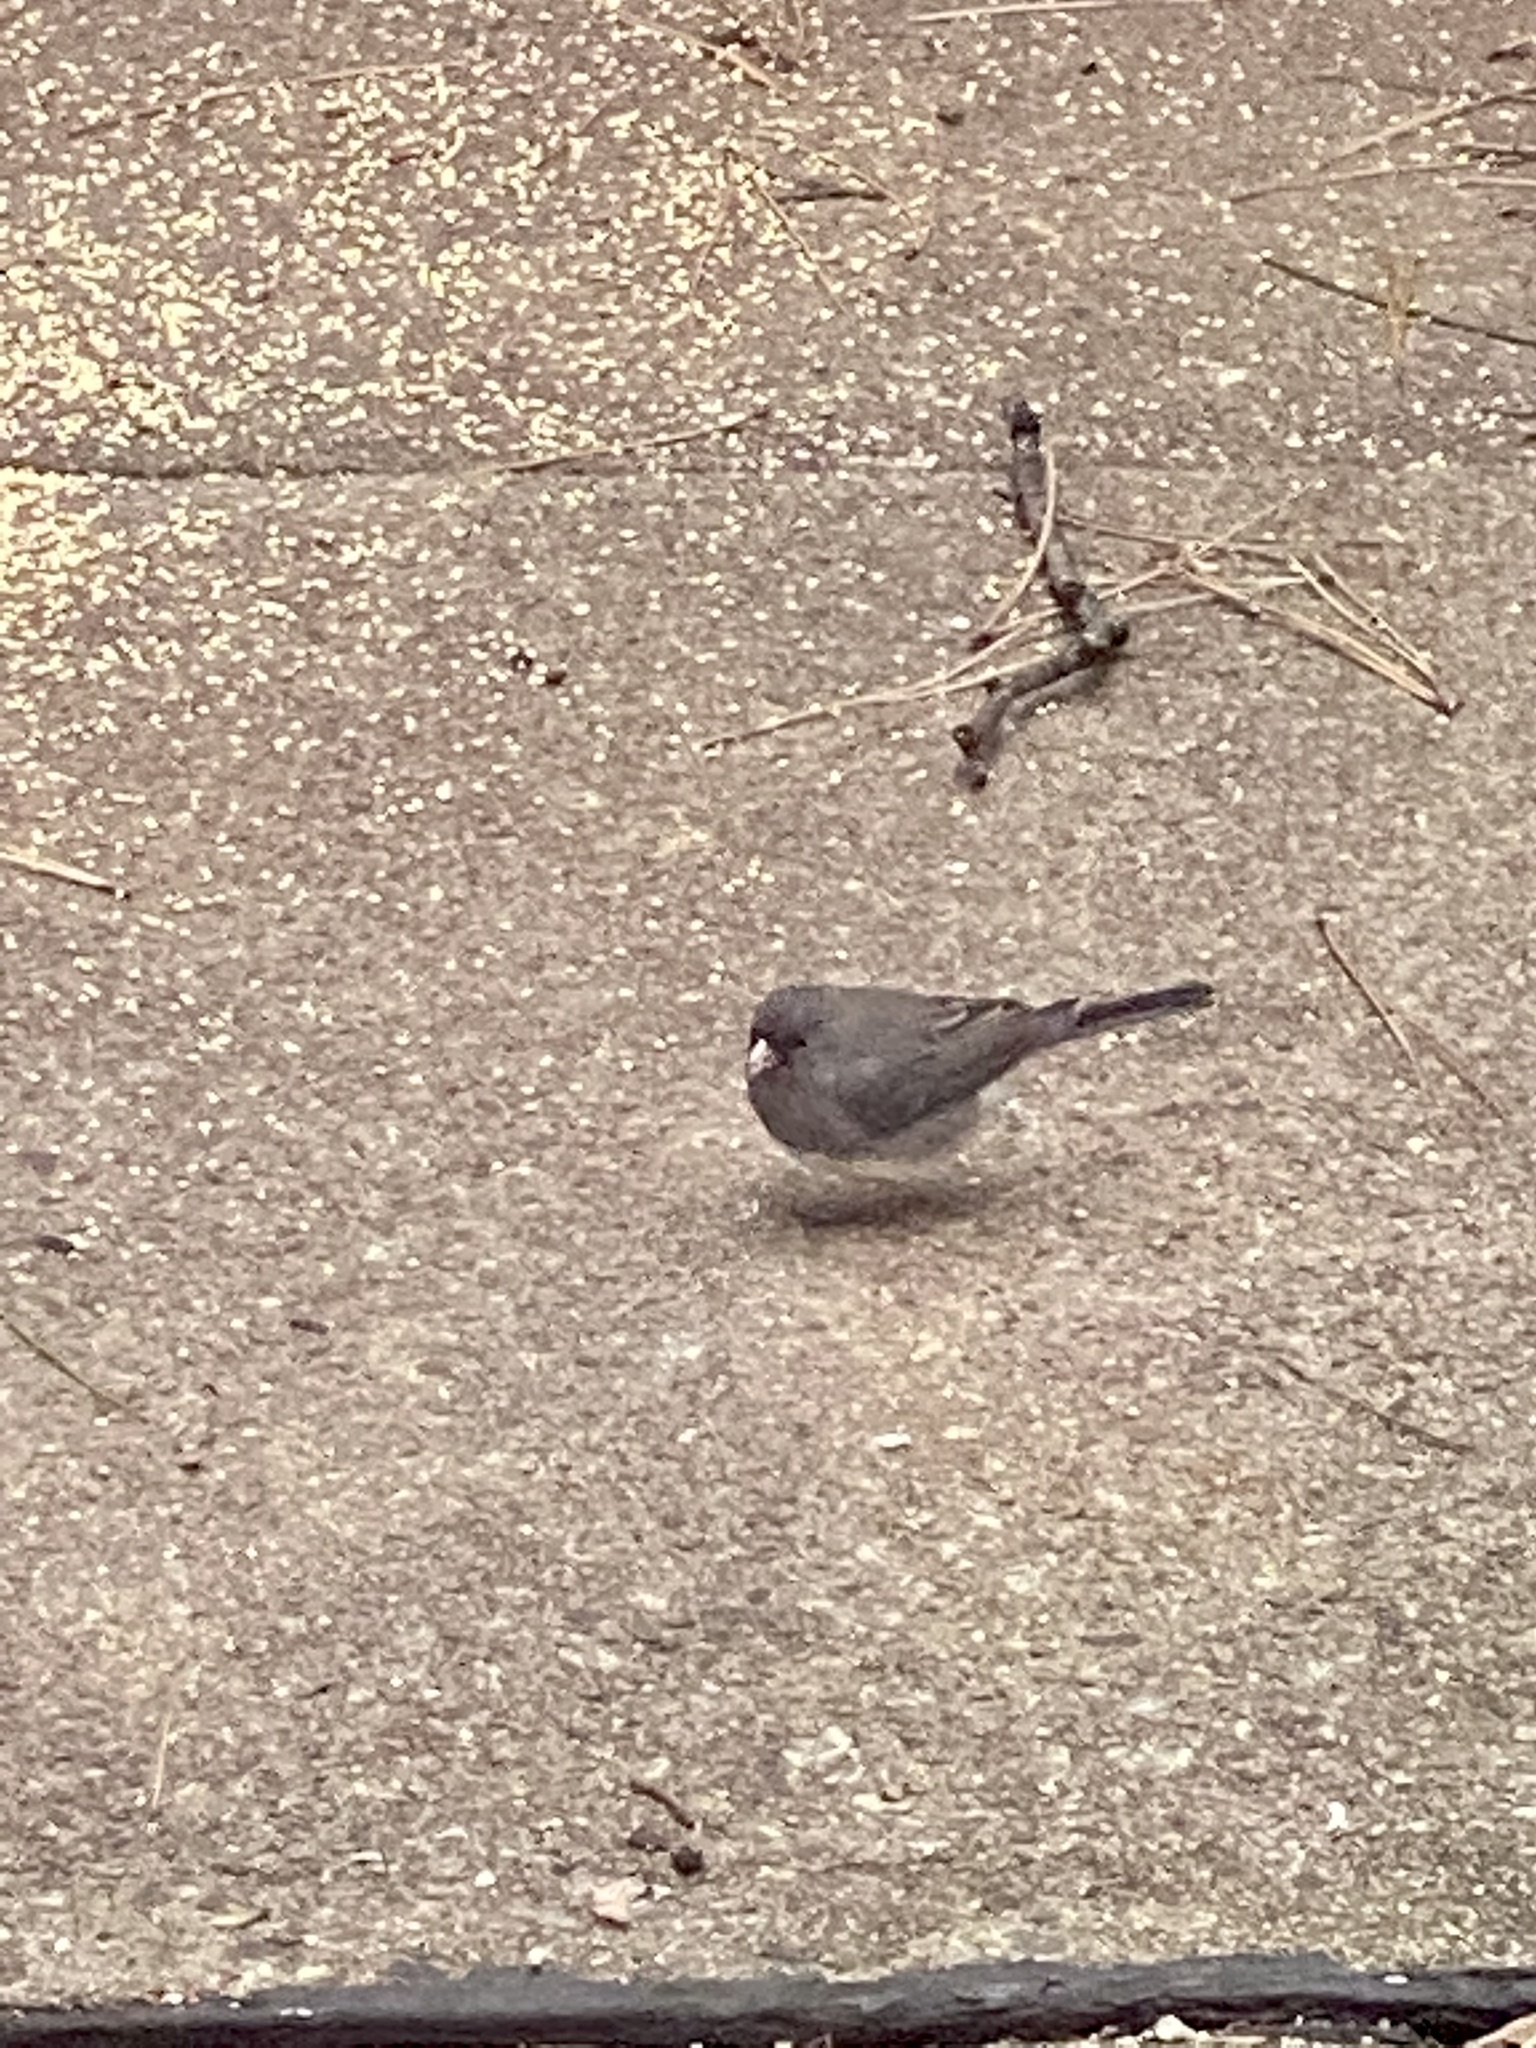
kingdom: Animalia
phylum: Chordata
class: Aves
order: Passeriformes
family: Passerellidae
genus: Junco
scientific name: Junco hyemalis
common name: Dark-eyed junco
